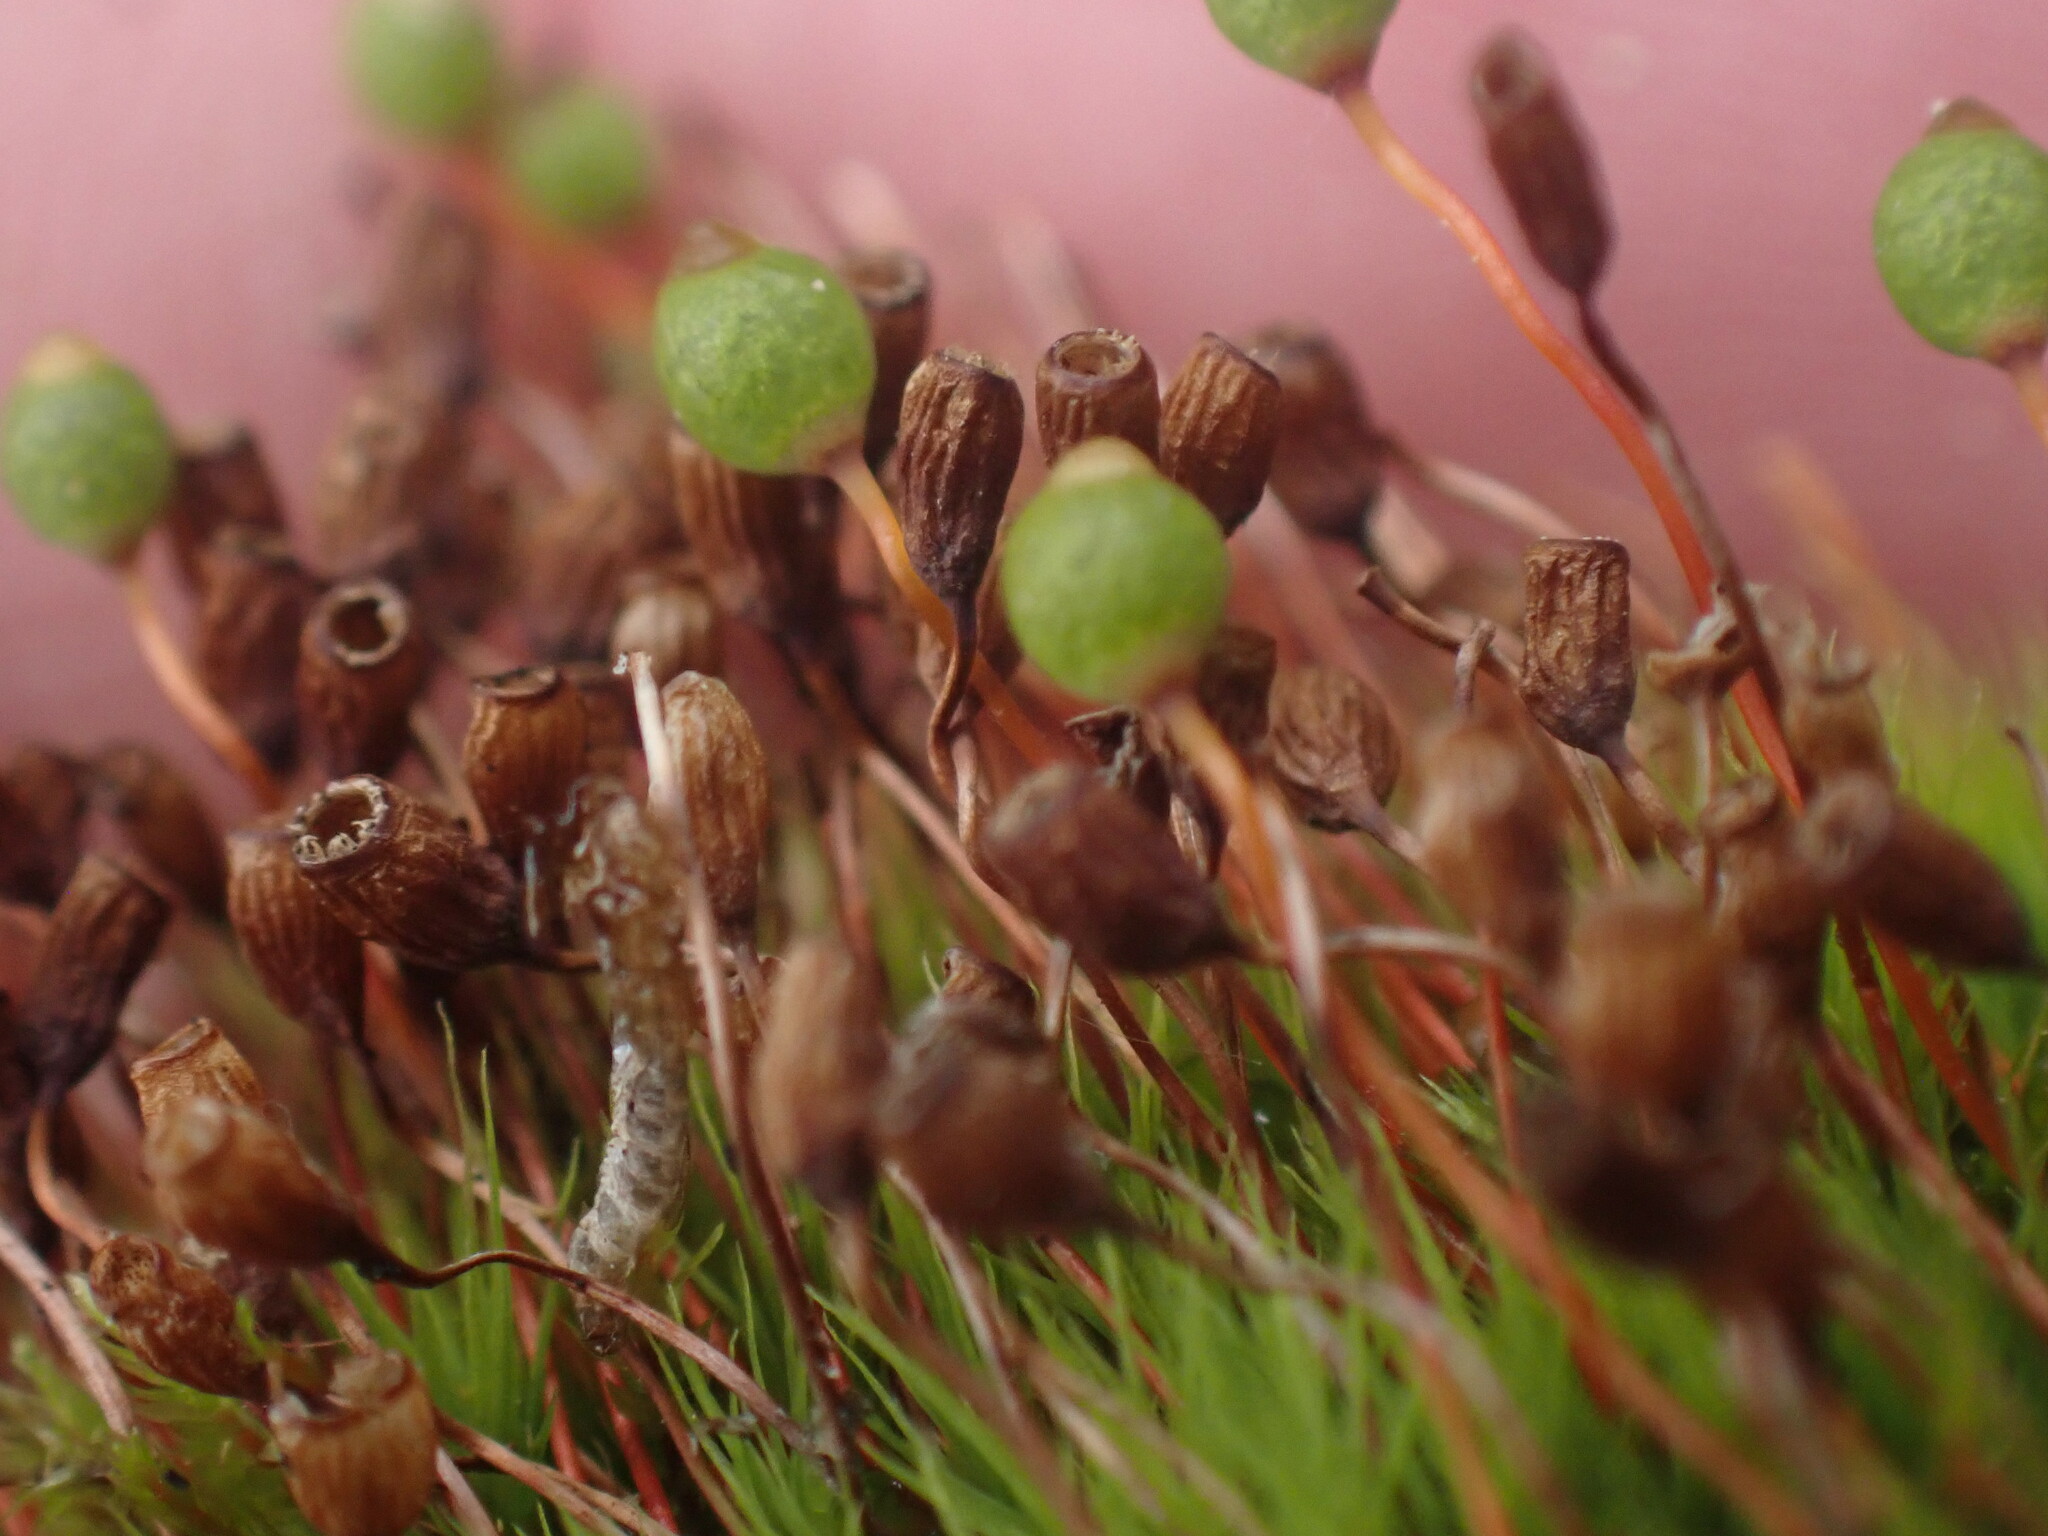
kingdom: Plantae
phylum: Bryophyta
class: Bryopsida
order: Bartramiales
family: Bartramiaceae
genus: Bartramia
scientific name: Bartramia ithyphylla
